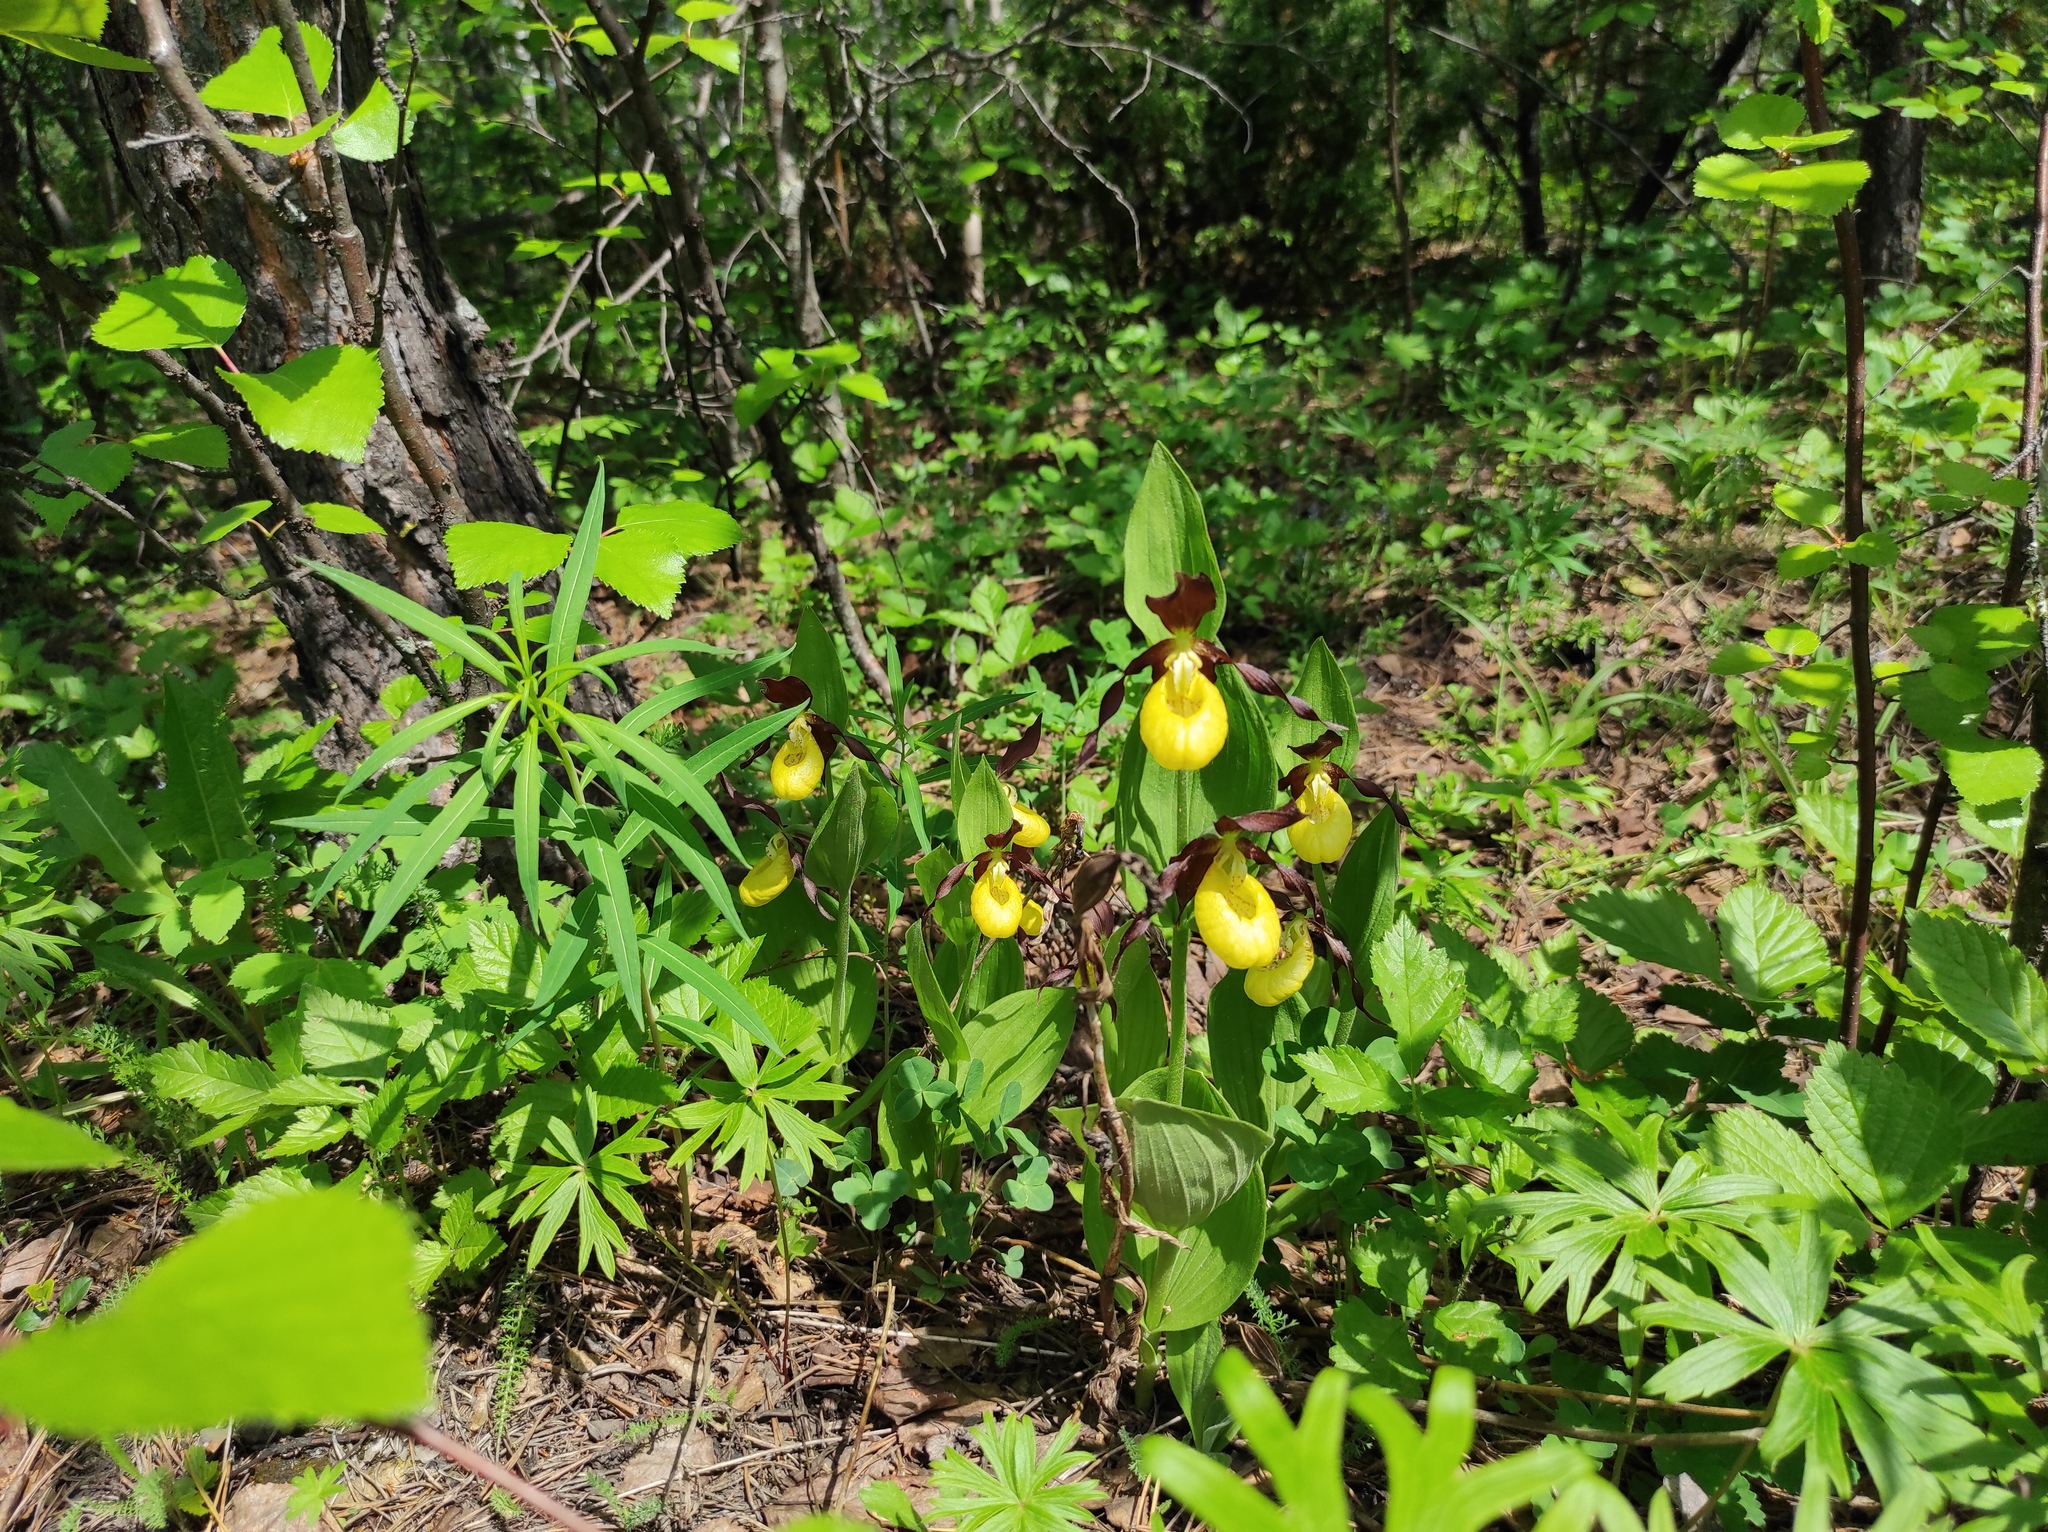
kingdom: Plantae
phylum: Tracheophyta
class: Magnoliopsida
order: Ranunculales
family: Ranunculaceae
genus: Pulsatilla
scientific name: Pulsatilla patens
